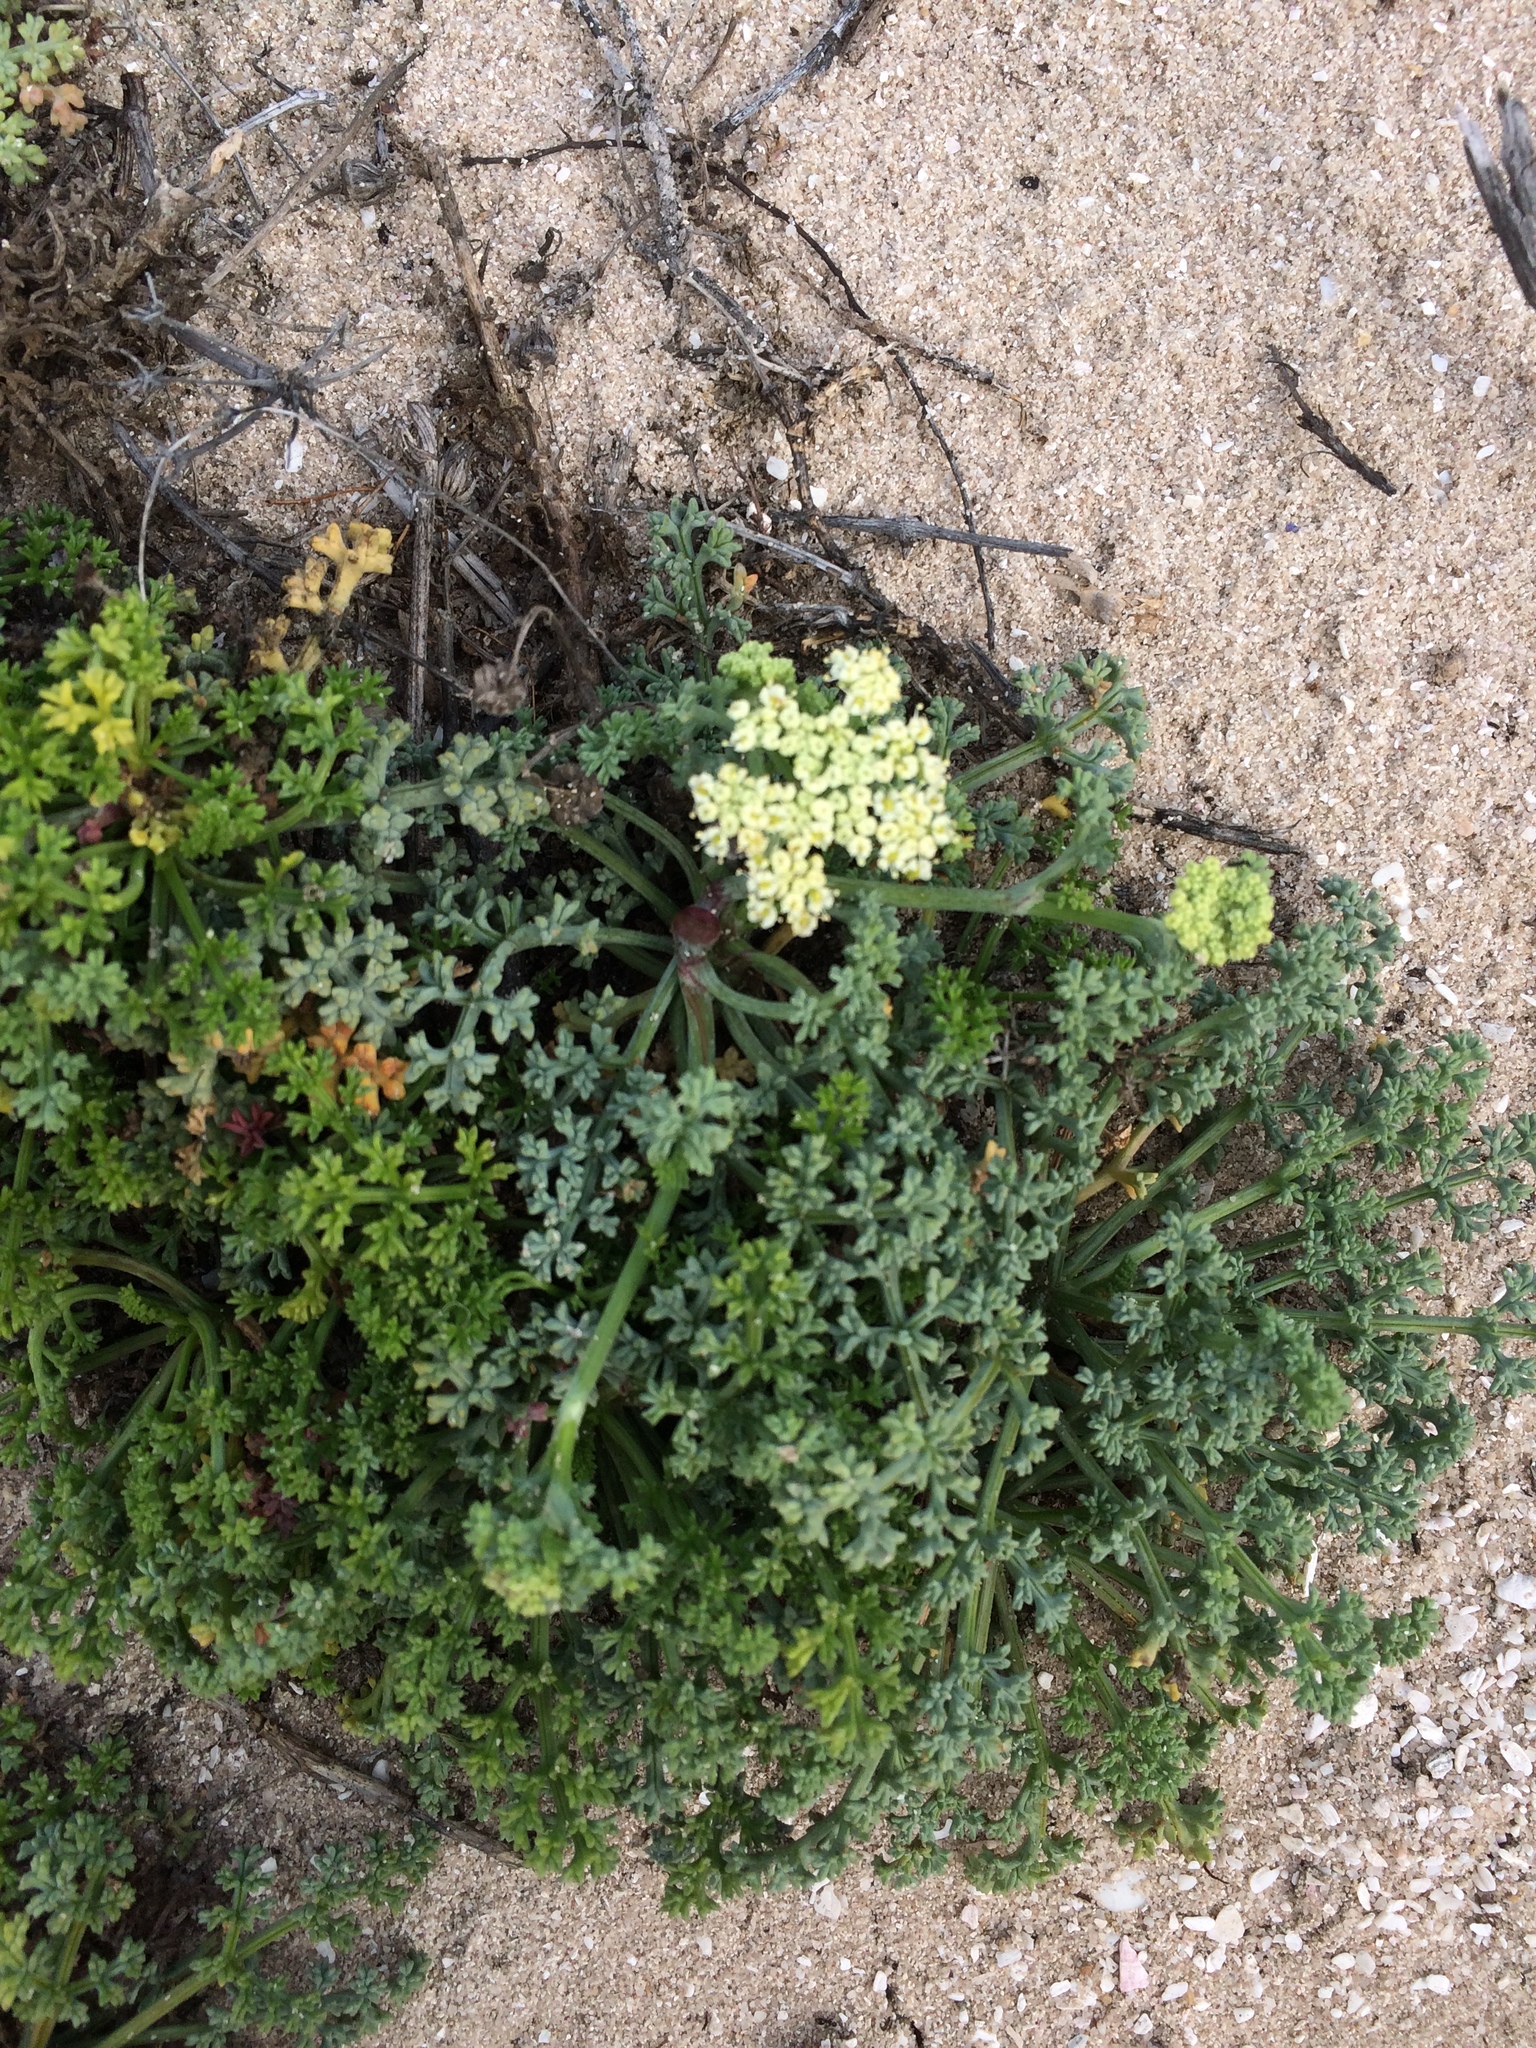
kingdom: Plantae
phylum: Tracheophyta
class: Magnoliopsida
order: Apiales
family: Apiaceae
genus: Dasispermum
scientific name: Dasispermum suffruticosum
